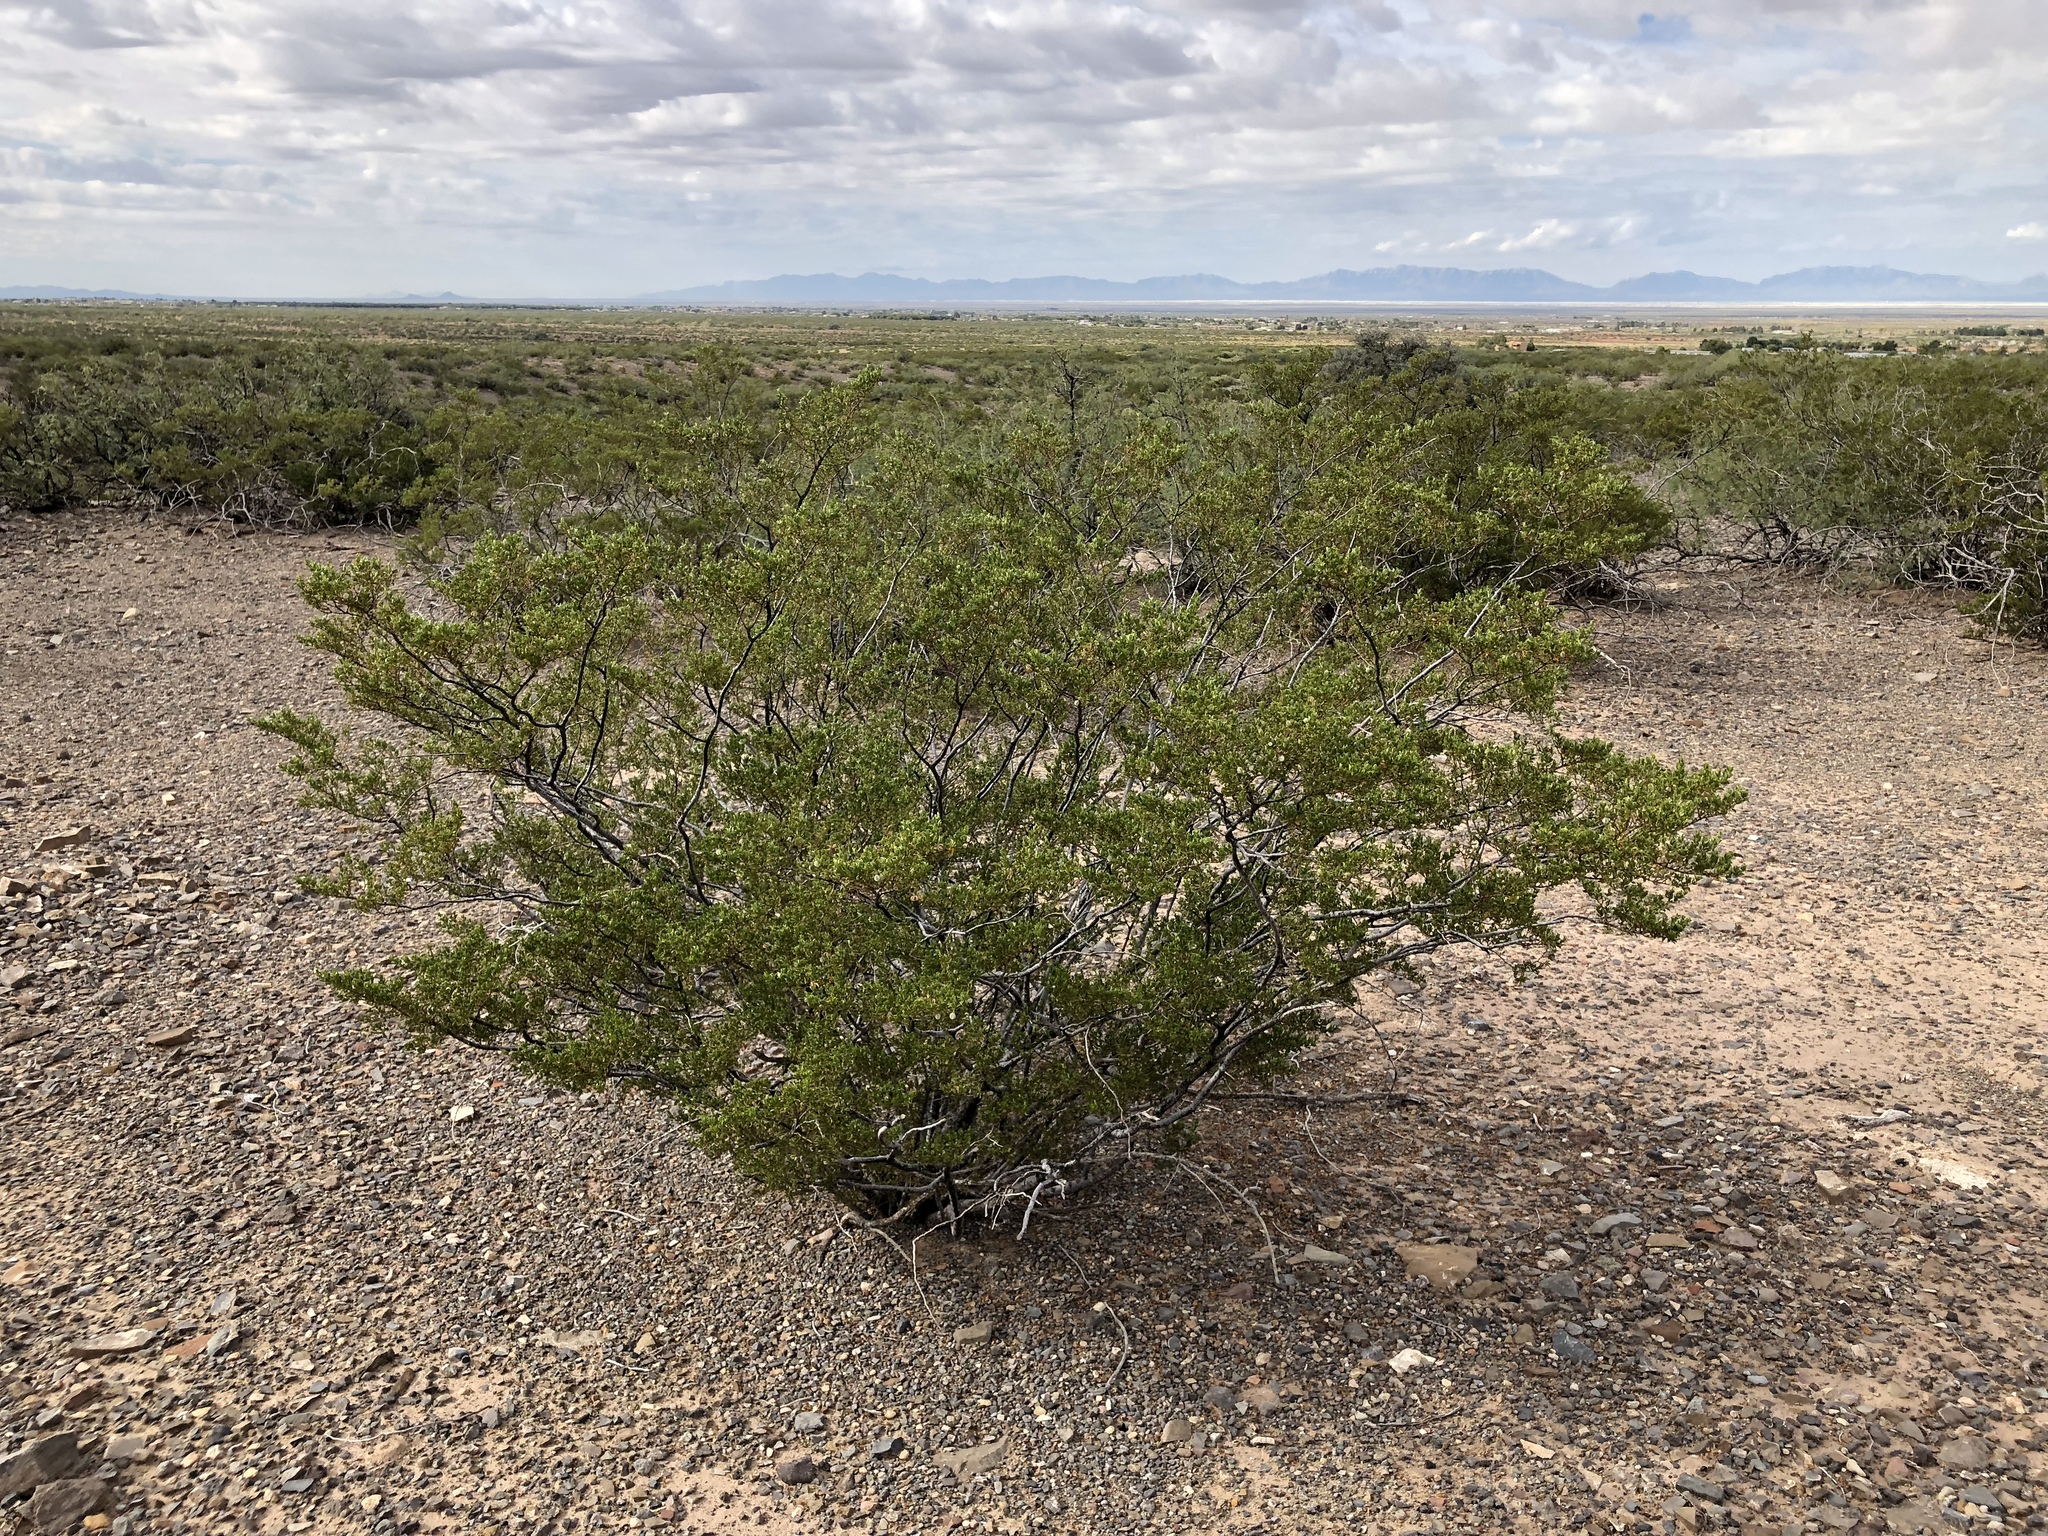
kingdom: Plantae
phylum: Tracheophyta
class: Magnoliopsida
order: Zygophyllales
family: Zygophyllaceae
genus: Larrea
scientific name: Larrea tridentata
